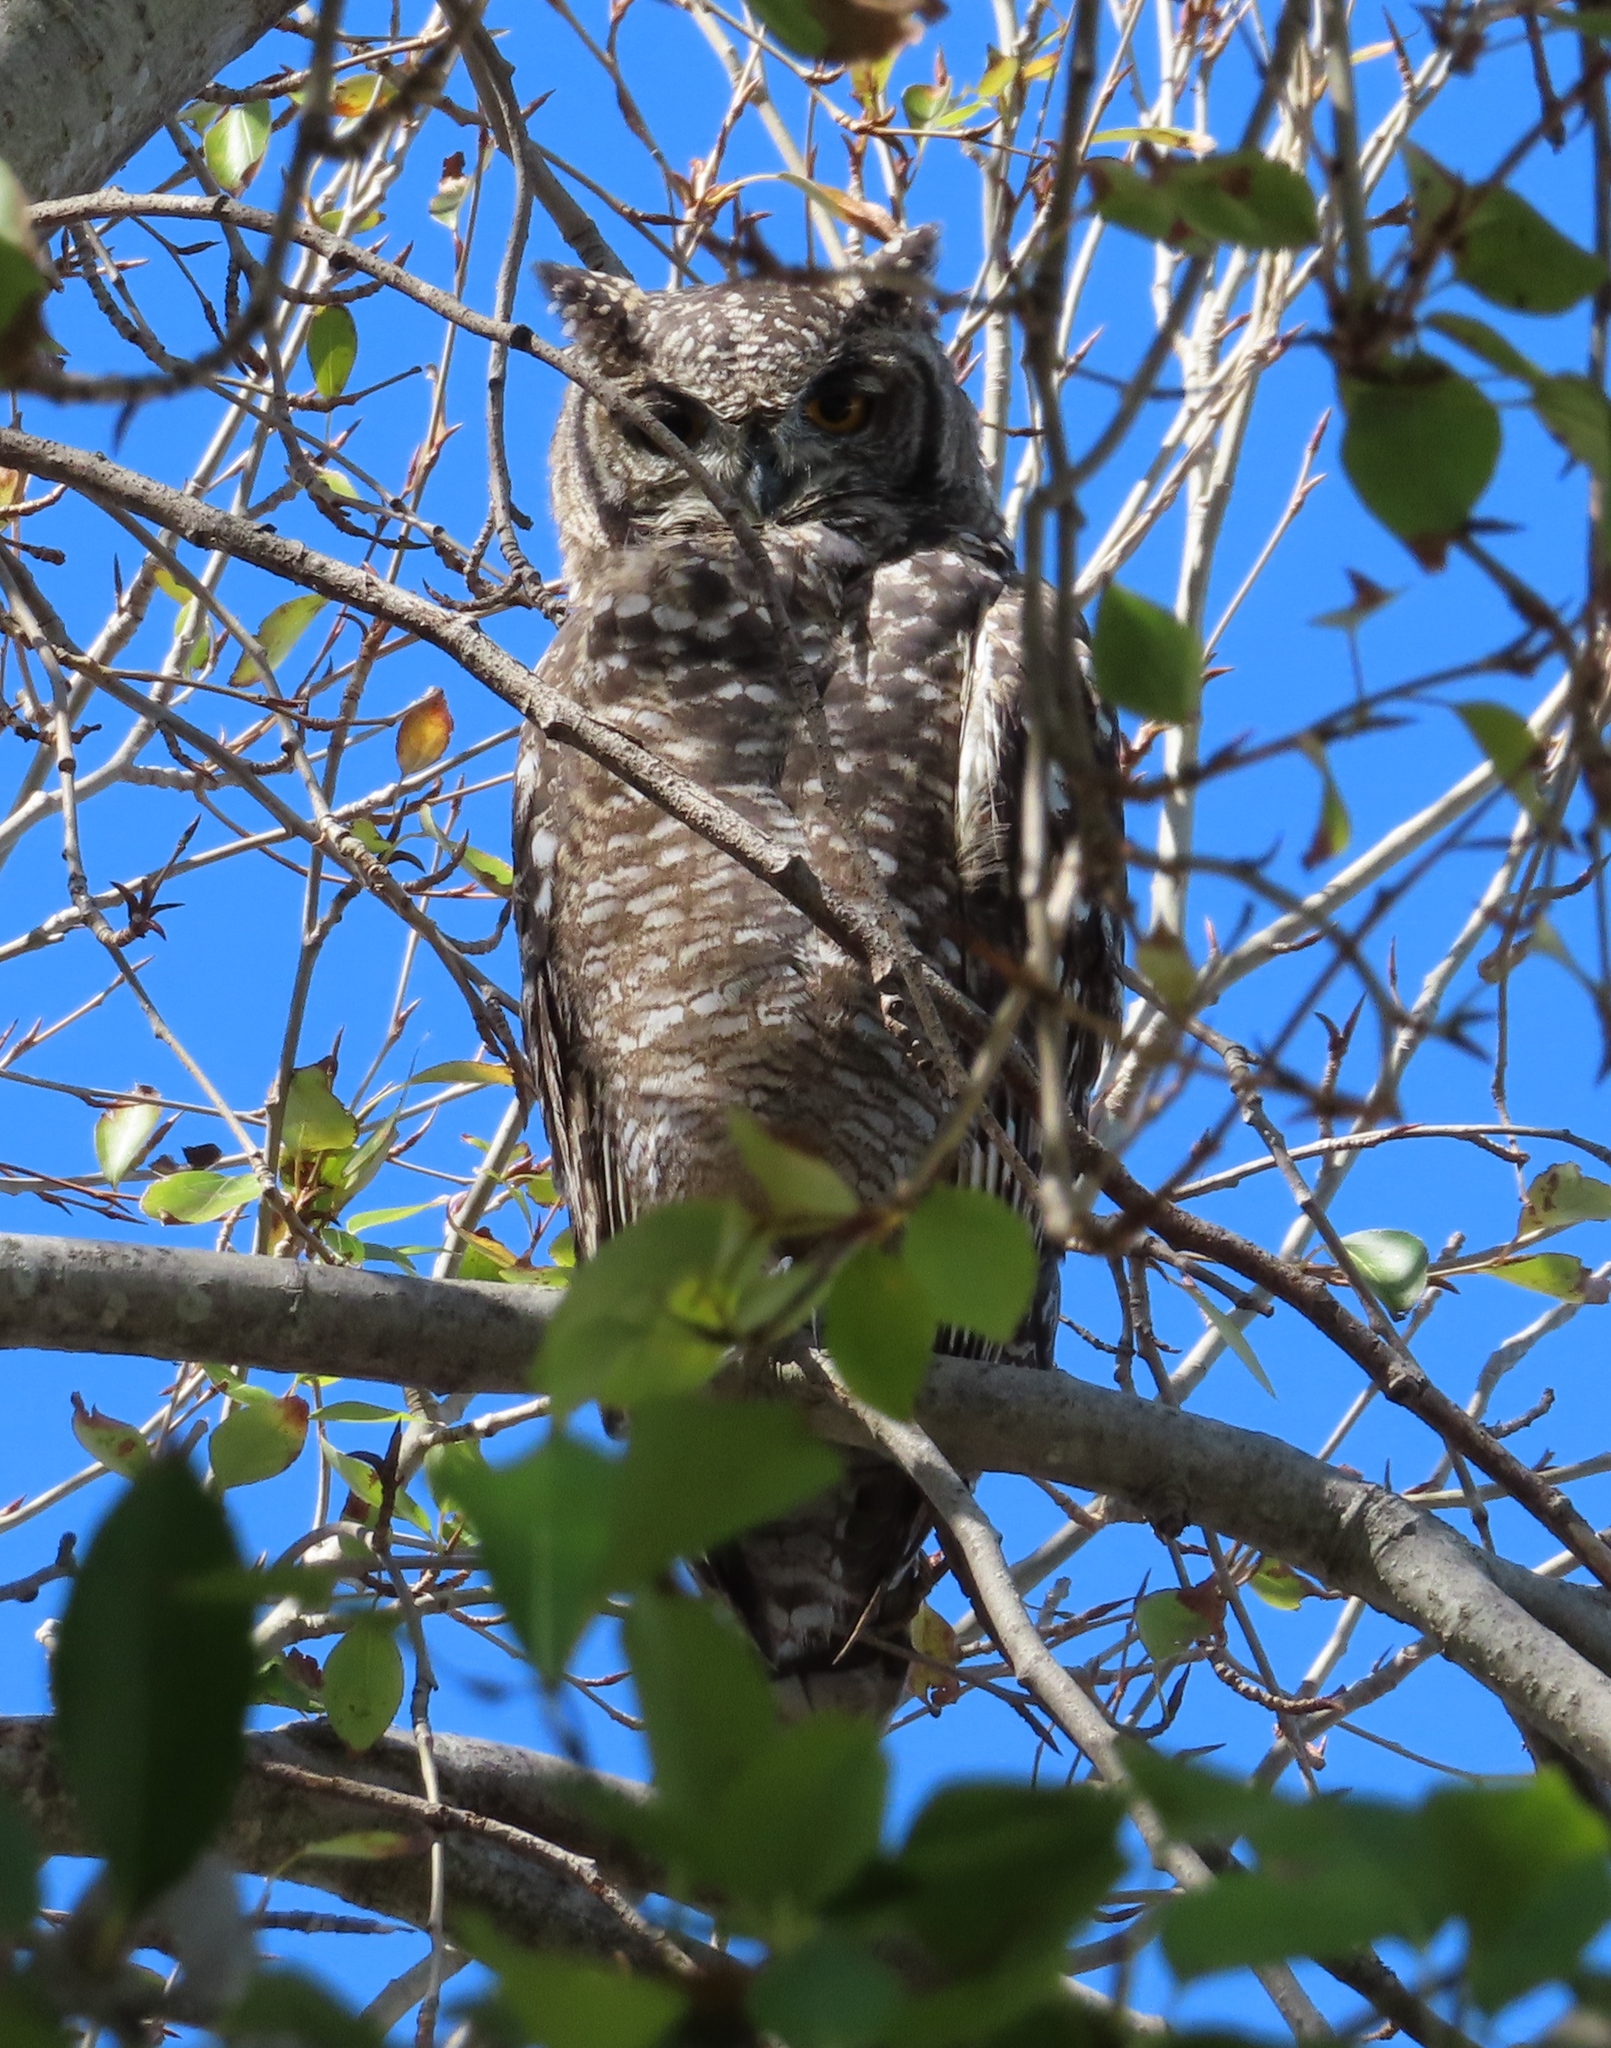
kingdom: Animalia
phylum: Chordata
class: Aves
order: Strigiformes
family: Strigidae
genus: Bubo
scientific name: Bubo africanus
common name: Spotted eagle-owl
